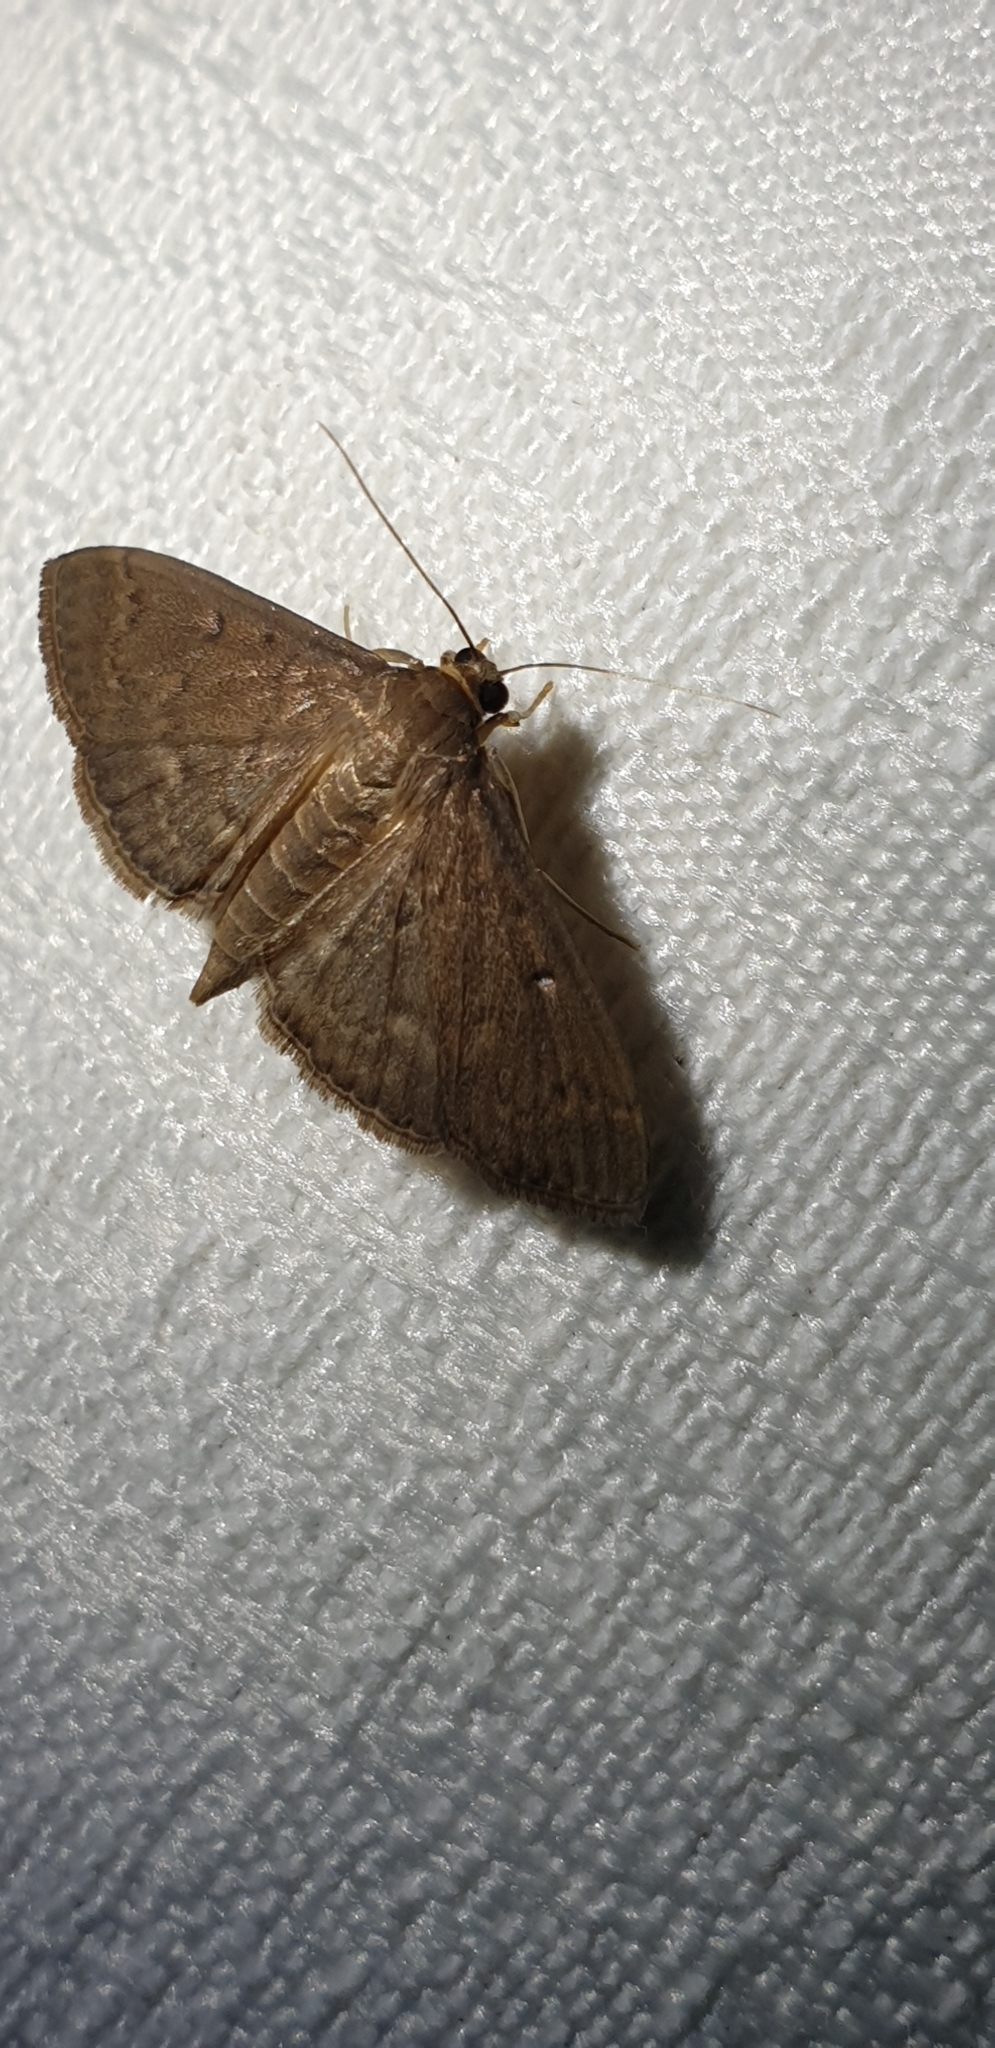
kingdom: Animalia
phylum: Arthropoda
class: Insecta
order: Lepidoptera
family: Crambidae
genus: Herpetogramma
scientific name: Herpetogramma licarsisalis
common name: Grass webworm
